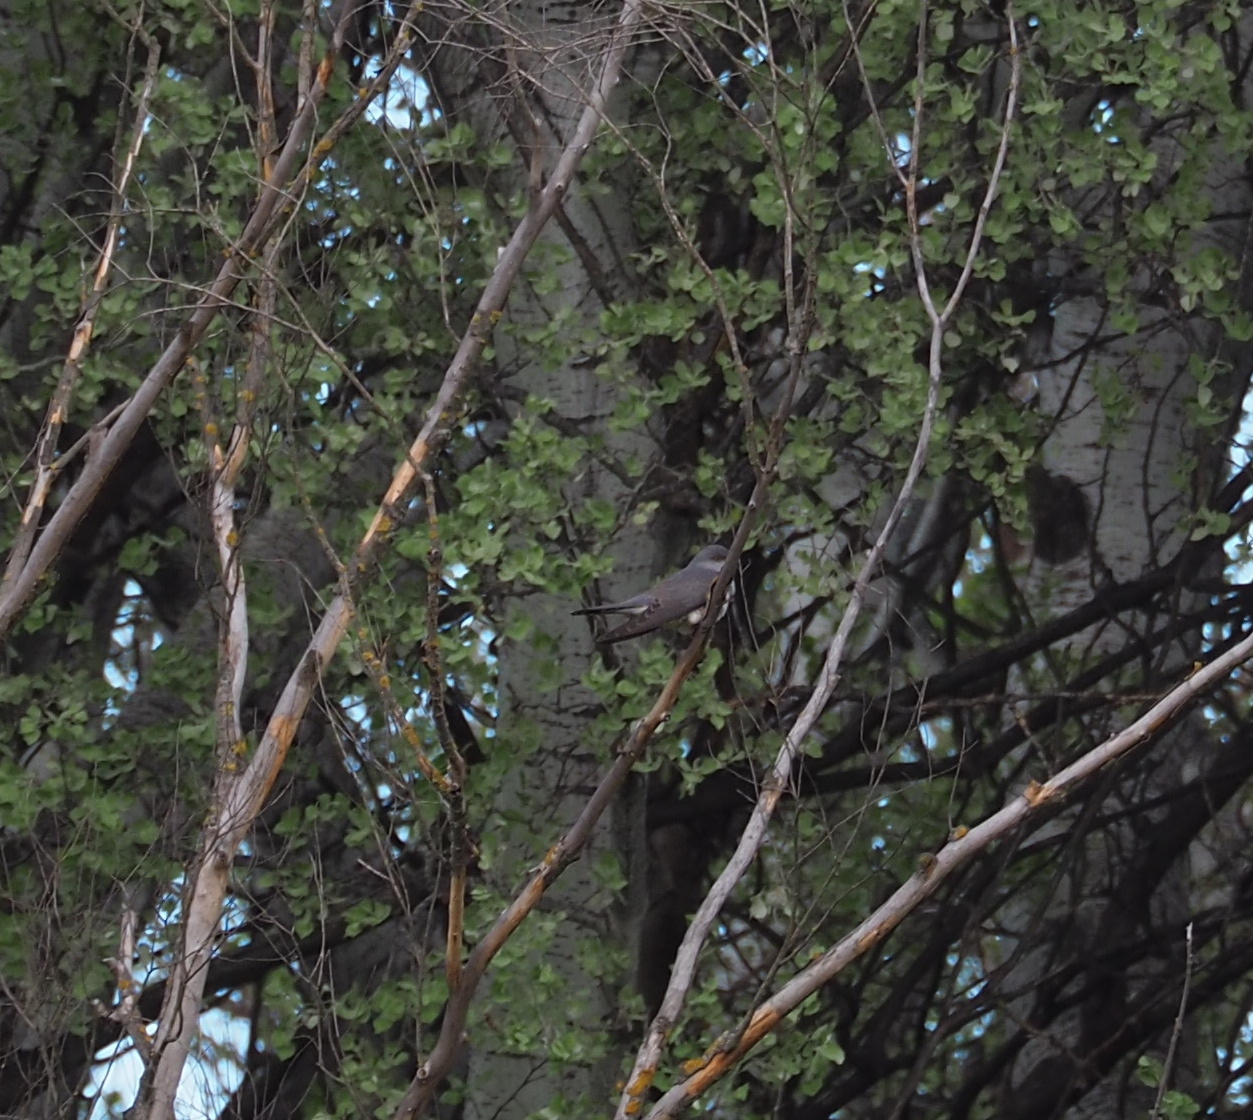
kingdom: Animalia
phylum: Chordata
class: Aves
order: Cuculiformes
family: Cuculidae
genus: Cuculus
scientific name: Cuculus canorus
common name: Common cuckoo
